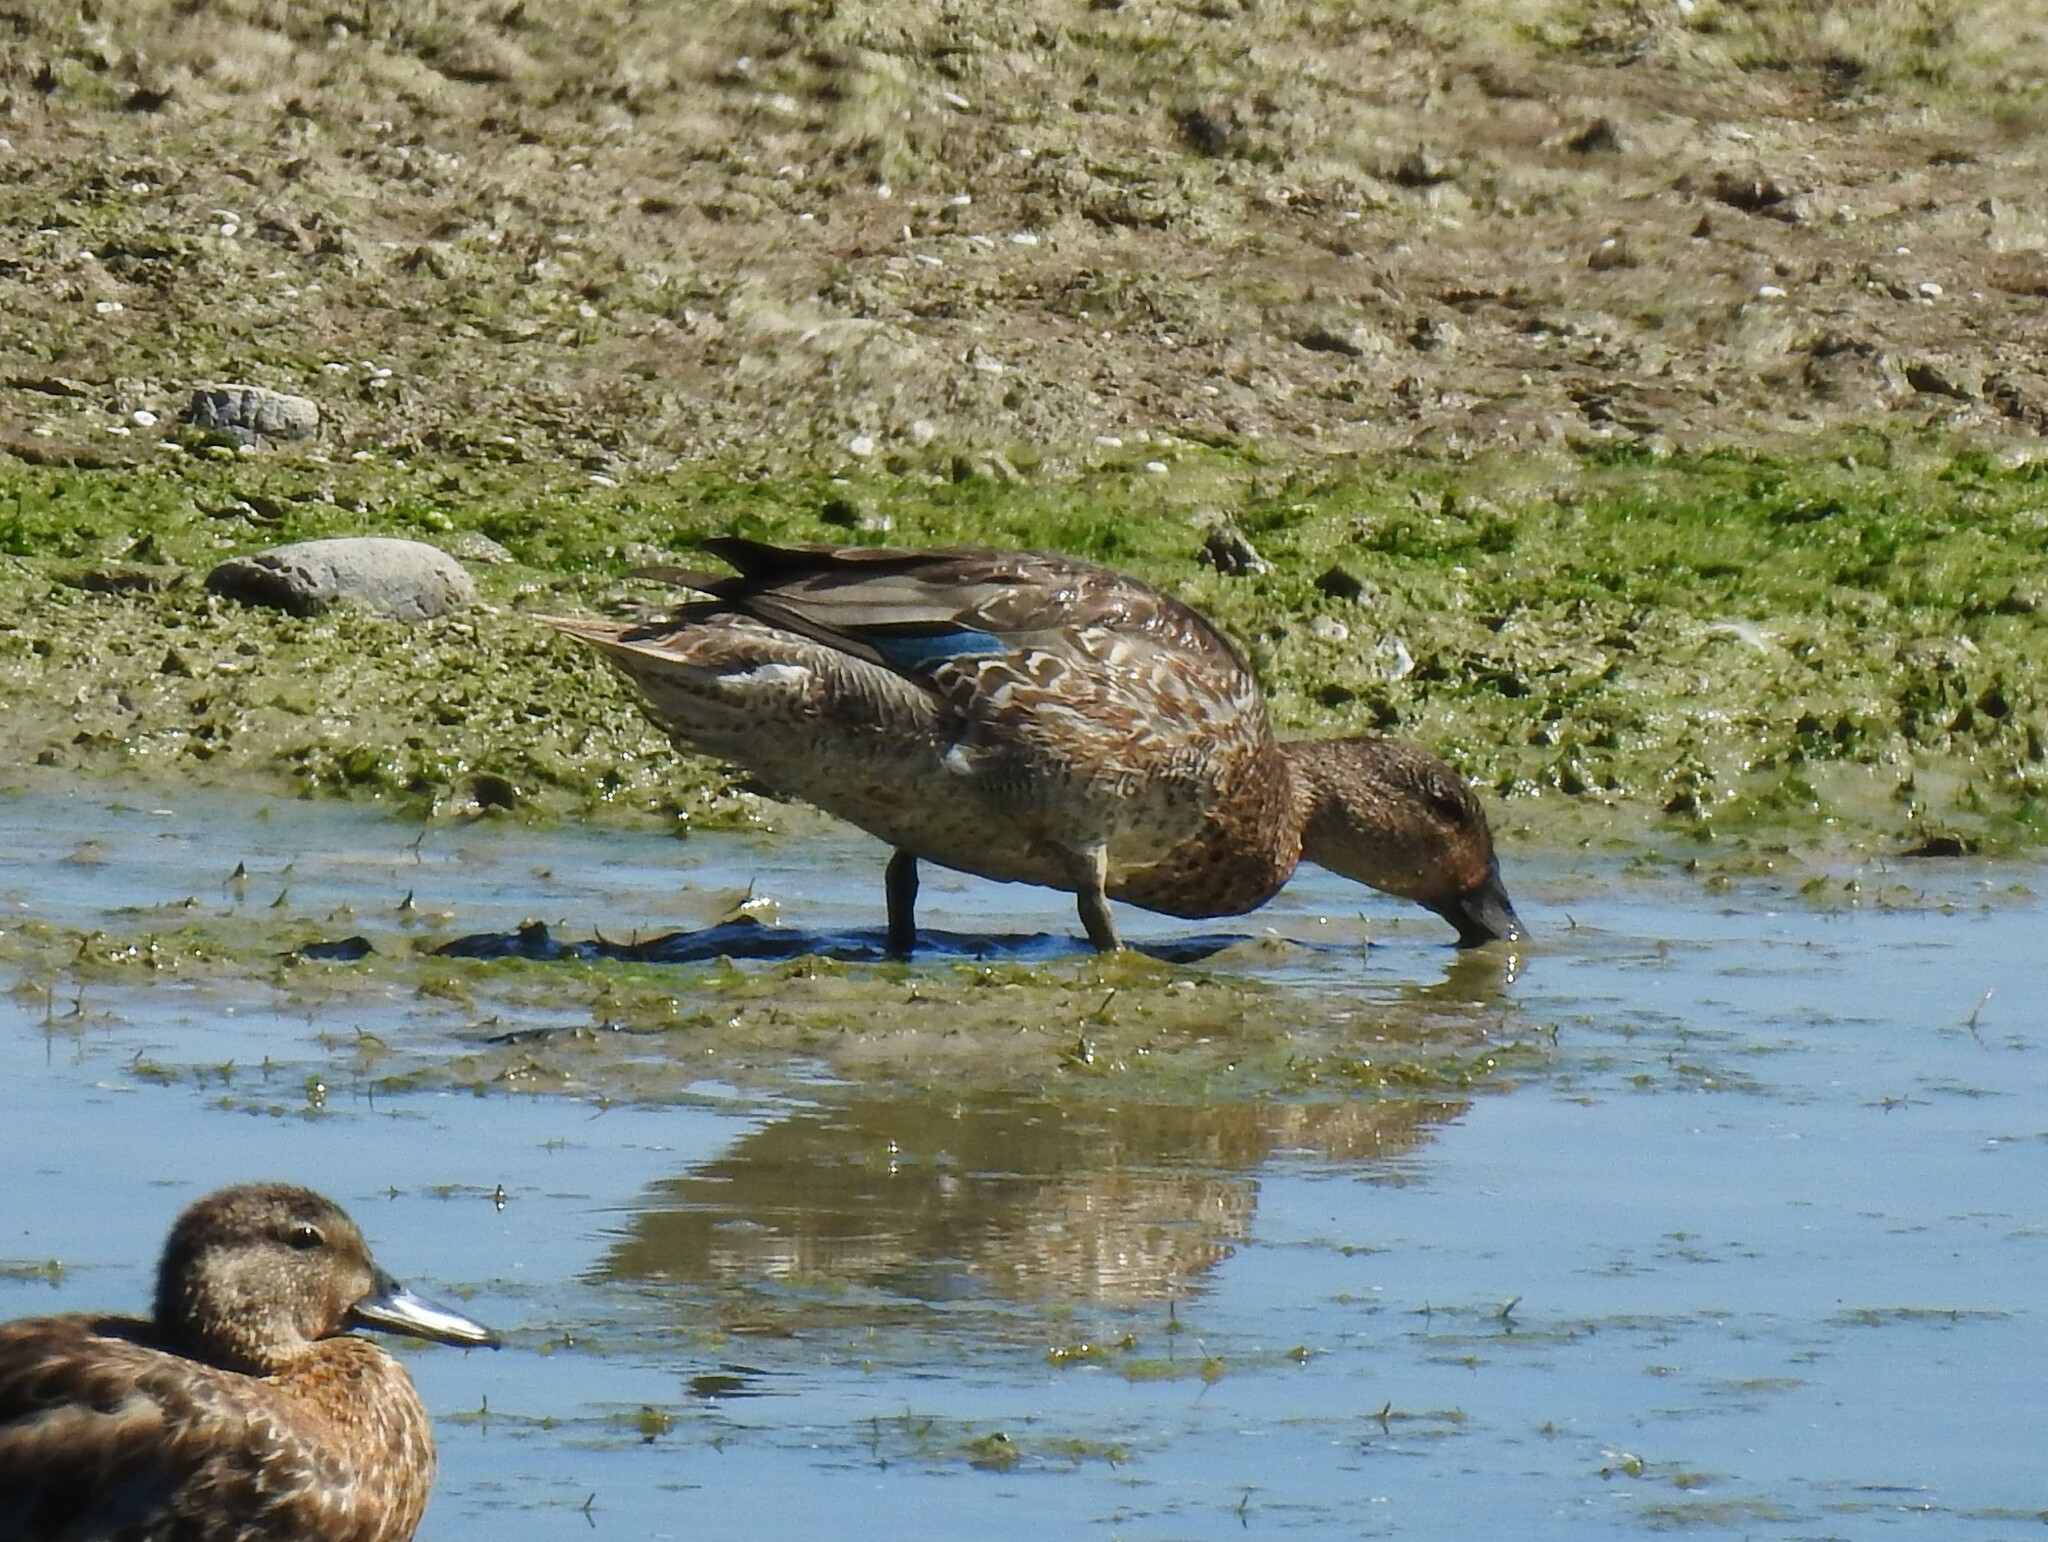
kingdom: Animalia
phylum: Chordata
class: Aves
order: Anseriformes
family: Anatidae
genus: Anas
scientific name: Anas crecca
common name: Eurasian teal
